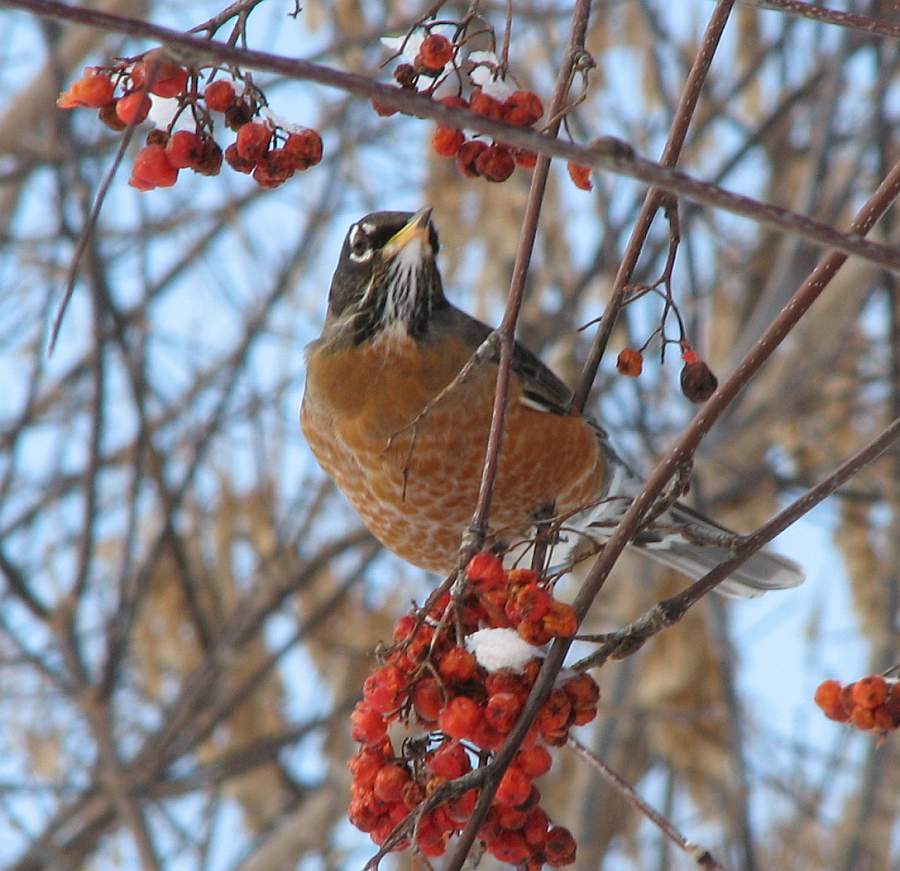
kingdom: Animalia
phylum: Chordata
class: Aves
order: Passeriformes
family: Turdidae
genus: Turdus
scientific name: Turdus migratorius
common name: American robin
